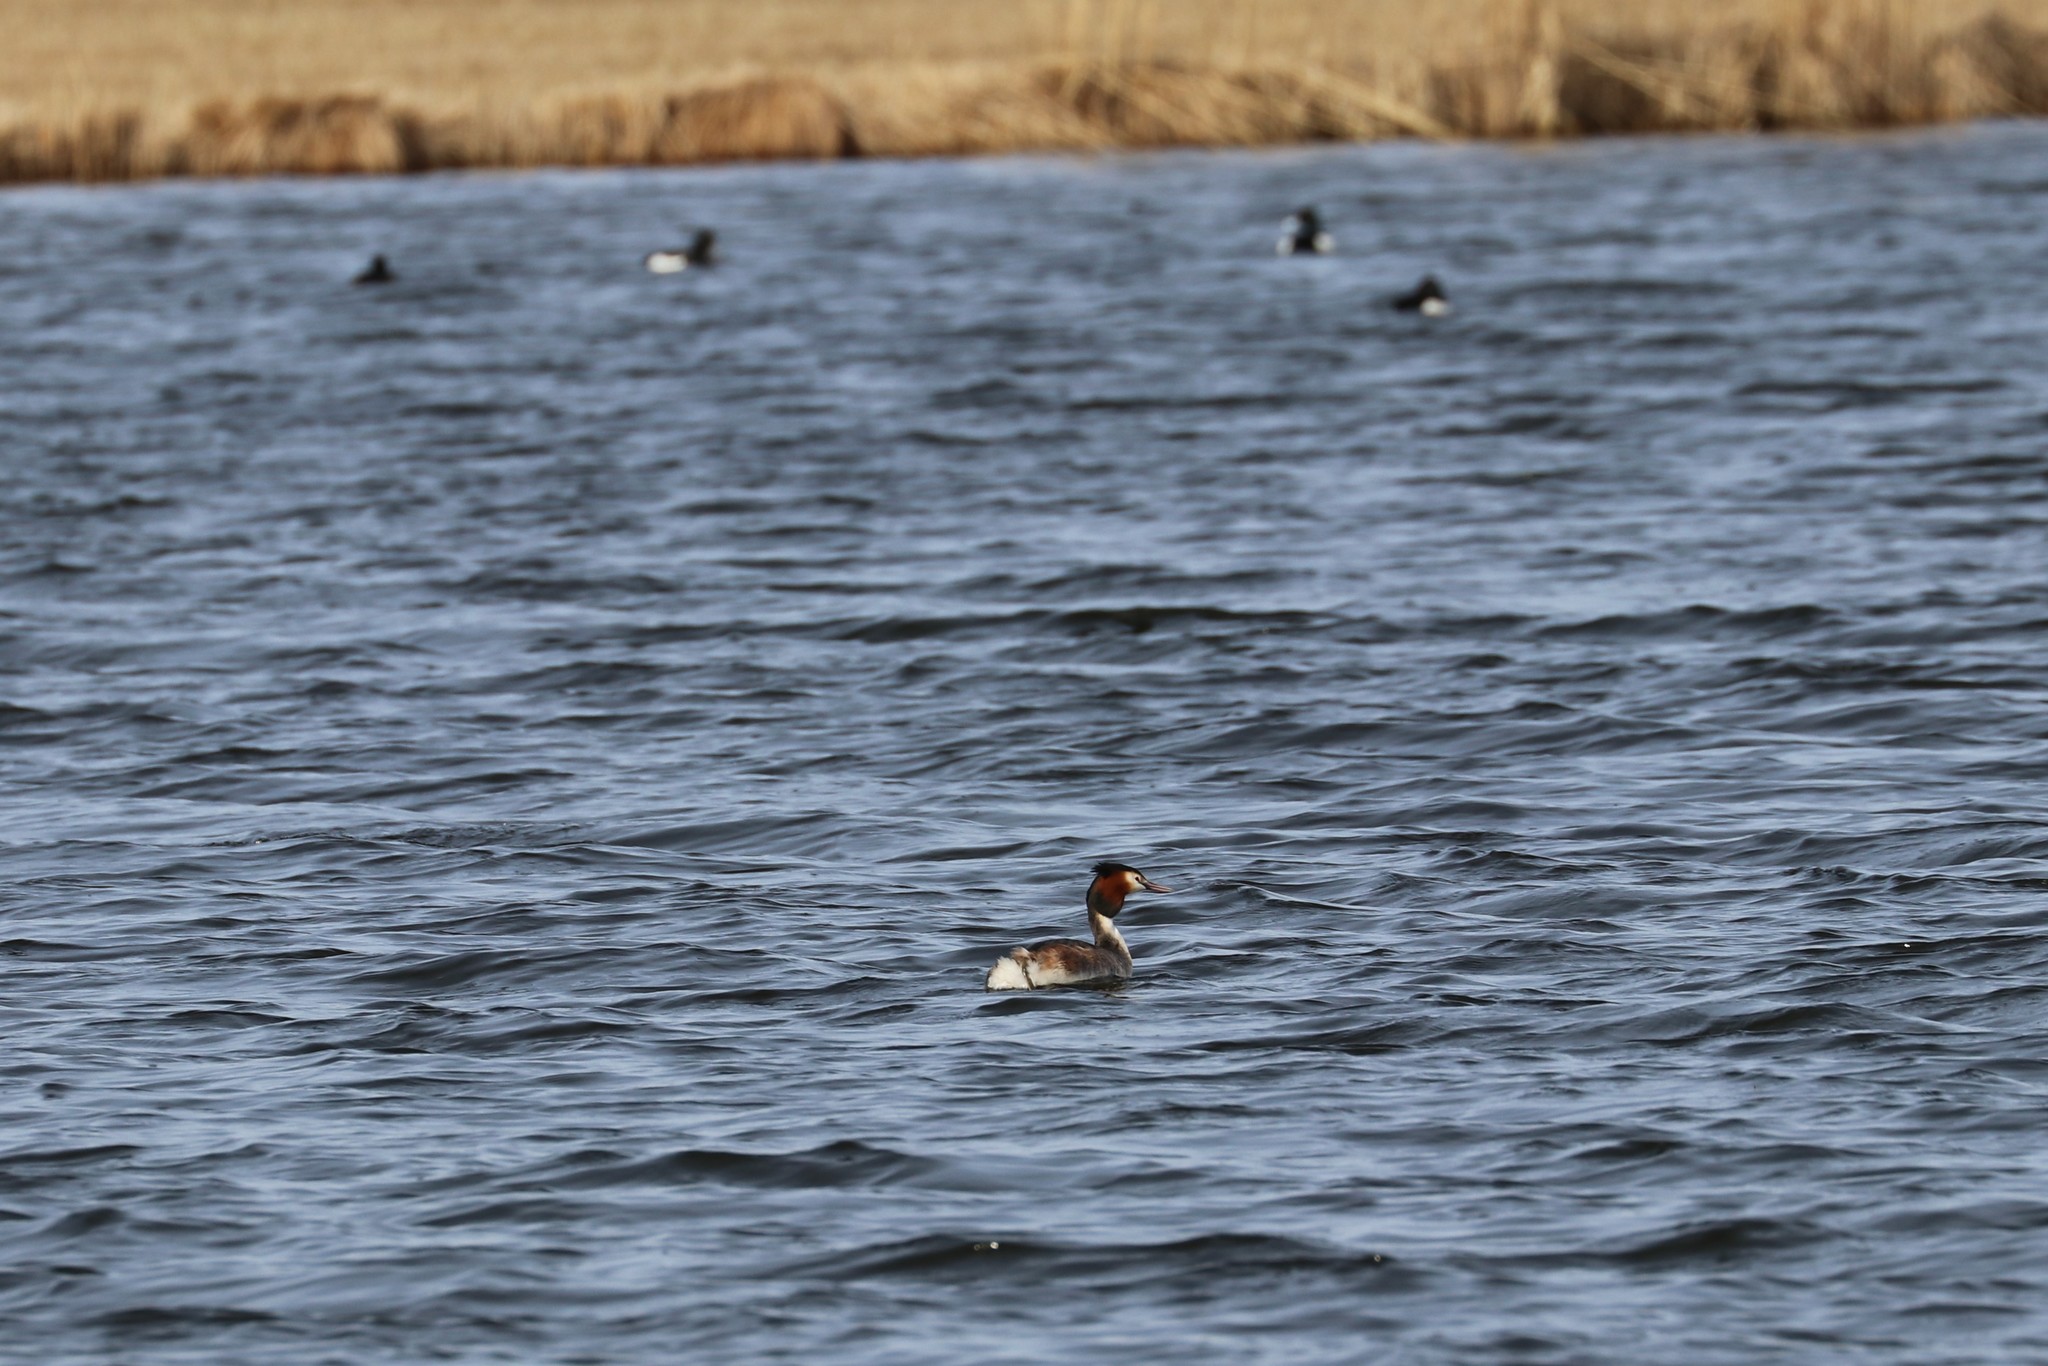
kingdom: Animalia
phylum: Chordata
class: Aves
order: Podicipediformes
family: Podicipedidae
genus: Podiceps
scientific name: Podiceps cristatus
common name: Great crested grebe
